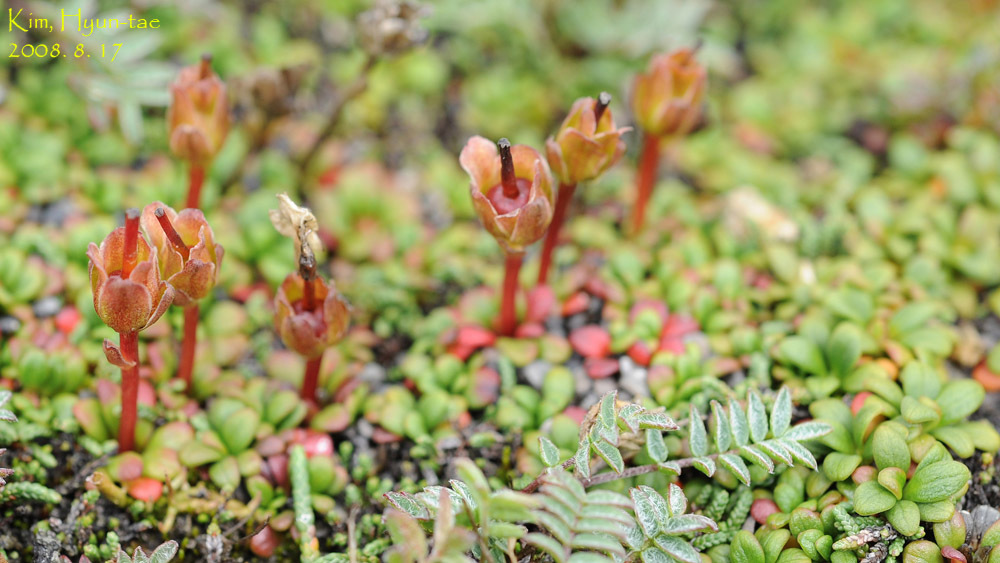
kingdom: Plantae
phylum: Tracheophyta
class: Magnoliopsida
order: Ericales
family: Diapensiaceae
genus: Diapensia
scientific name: Diapensia obovata
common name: Alaska diapensia
